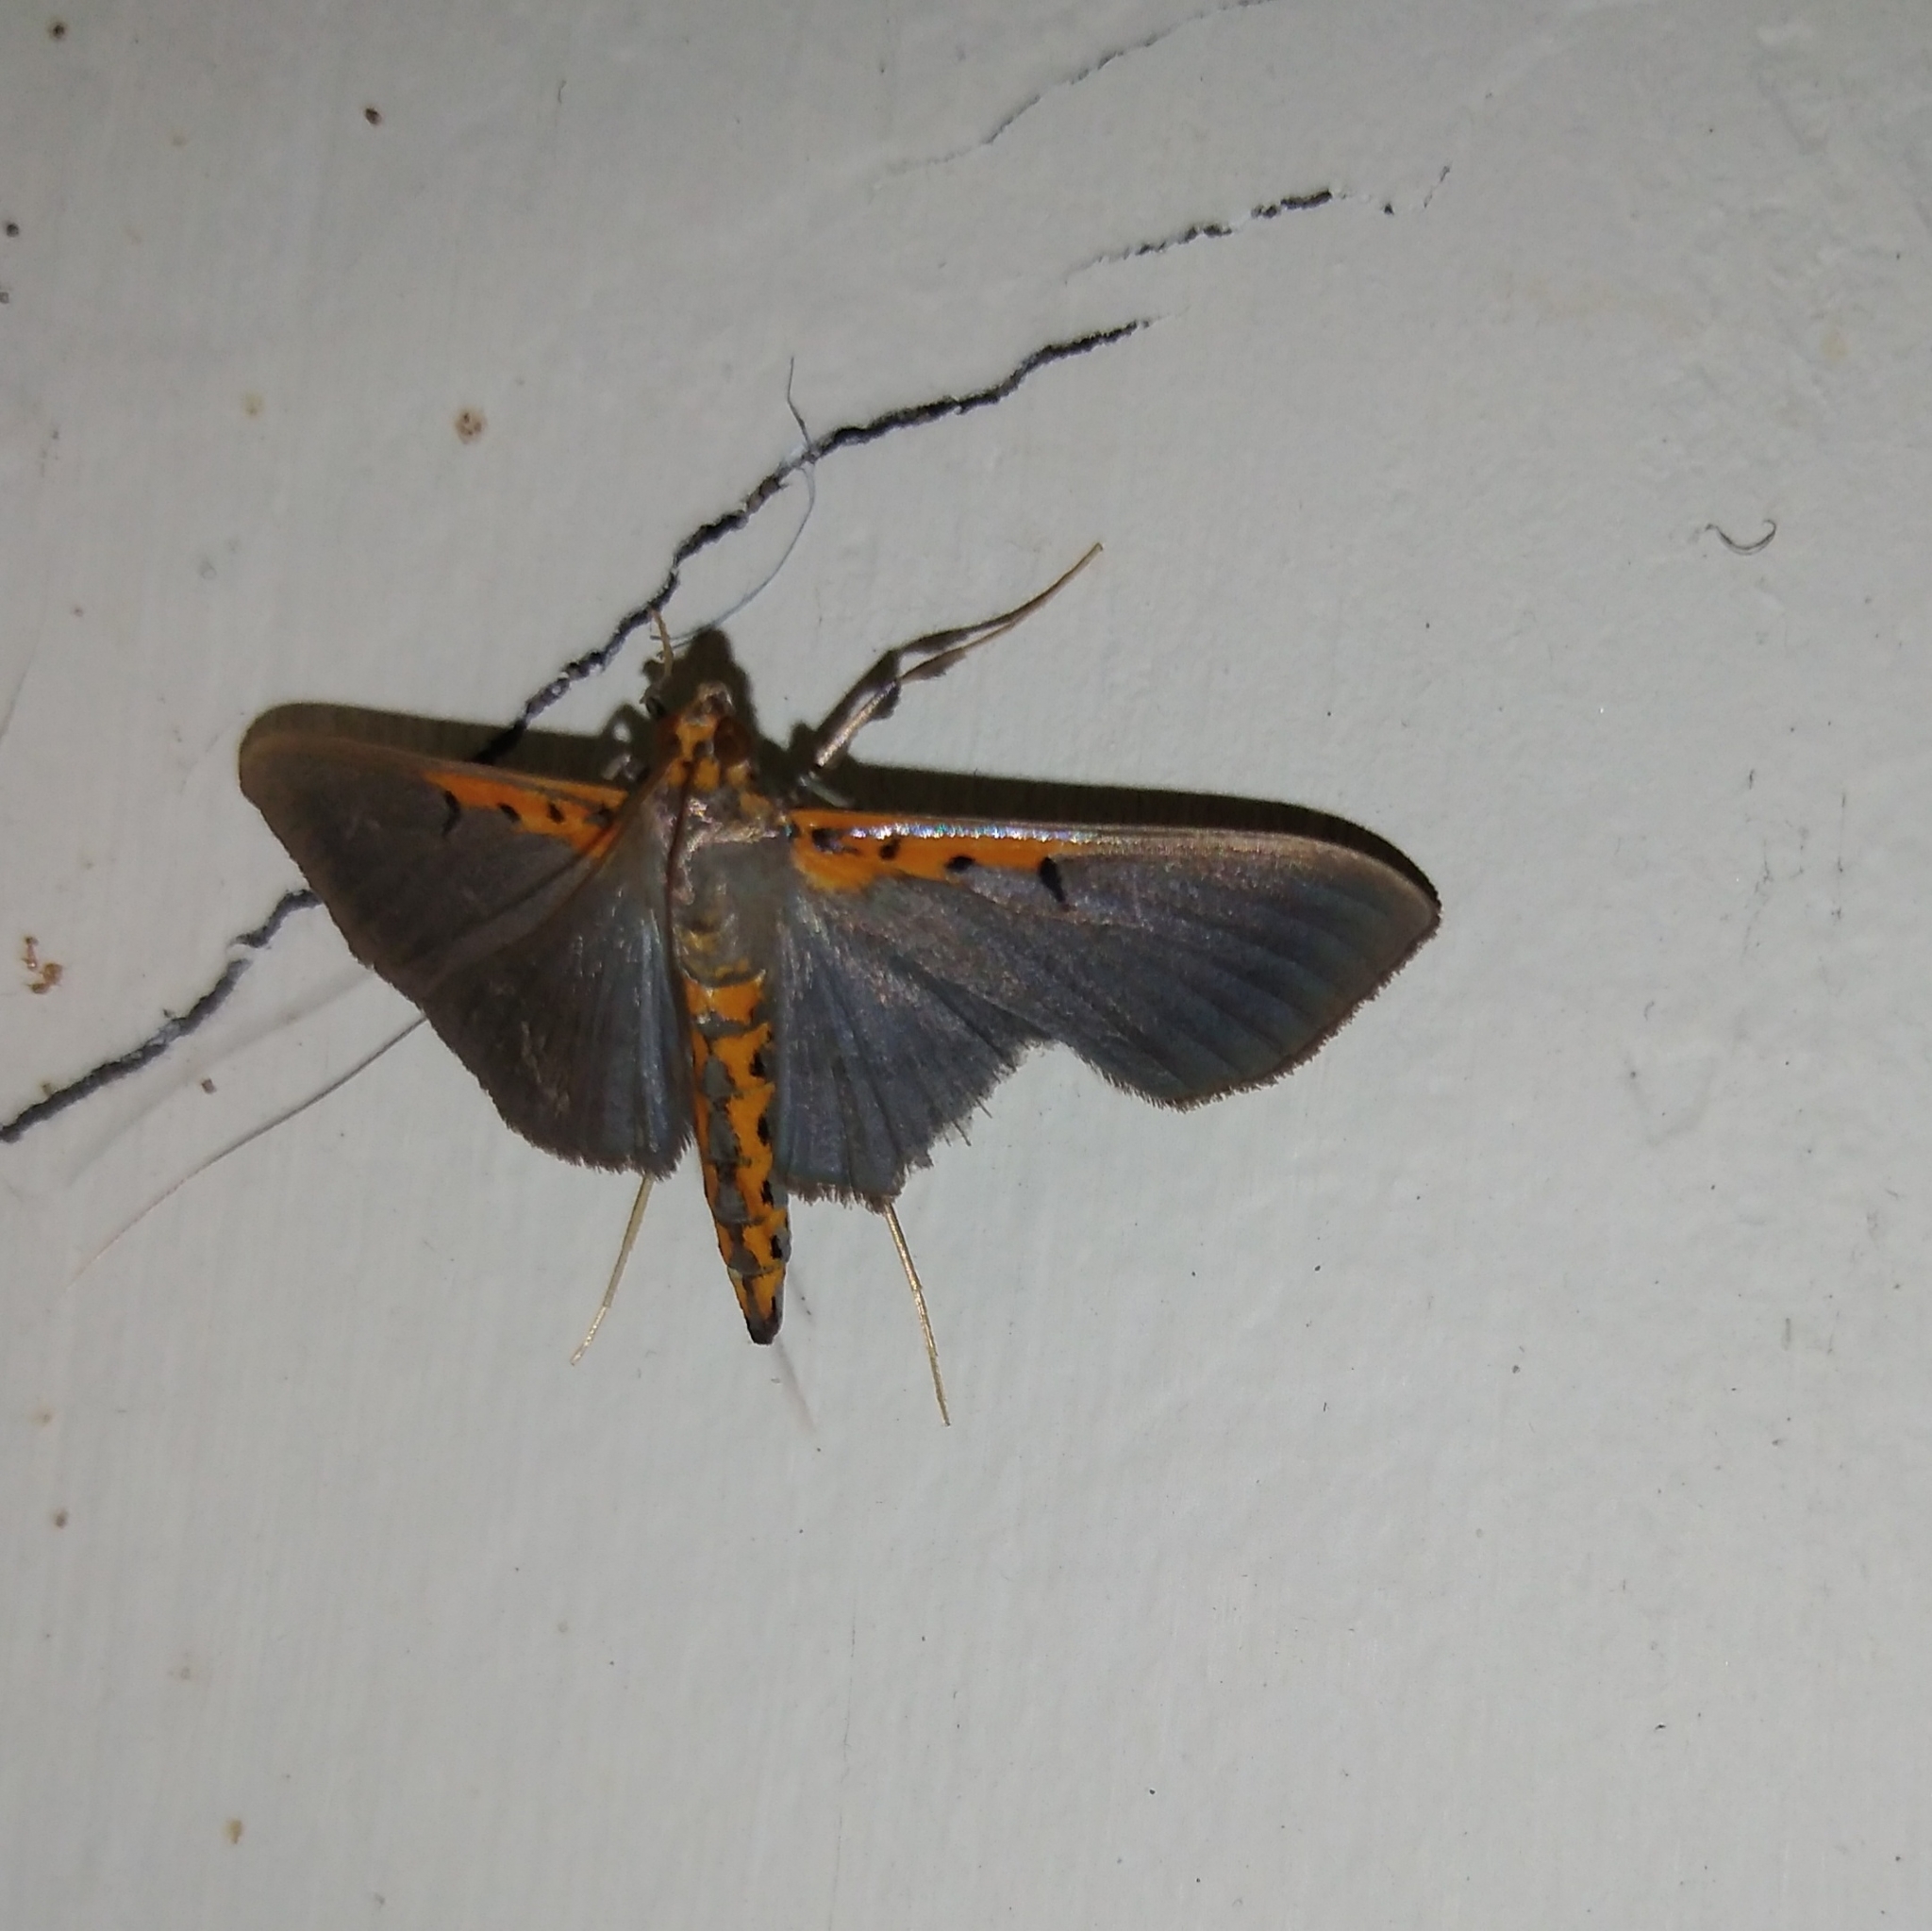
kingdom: Animalia
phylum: Arthropoda
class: Insecta
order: Lepidoptera
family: Crambidae
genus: Filodes
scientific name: Filodes costivitralis
